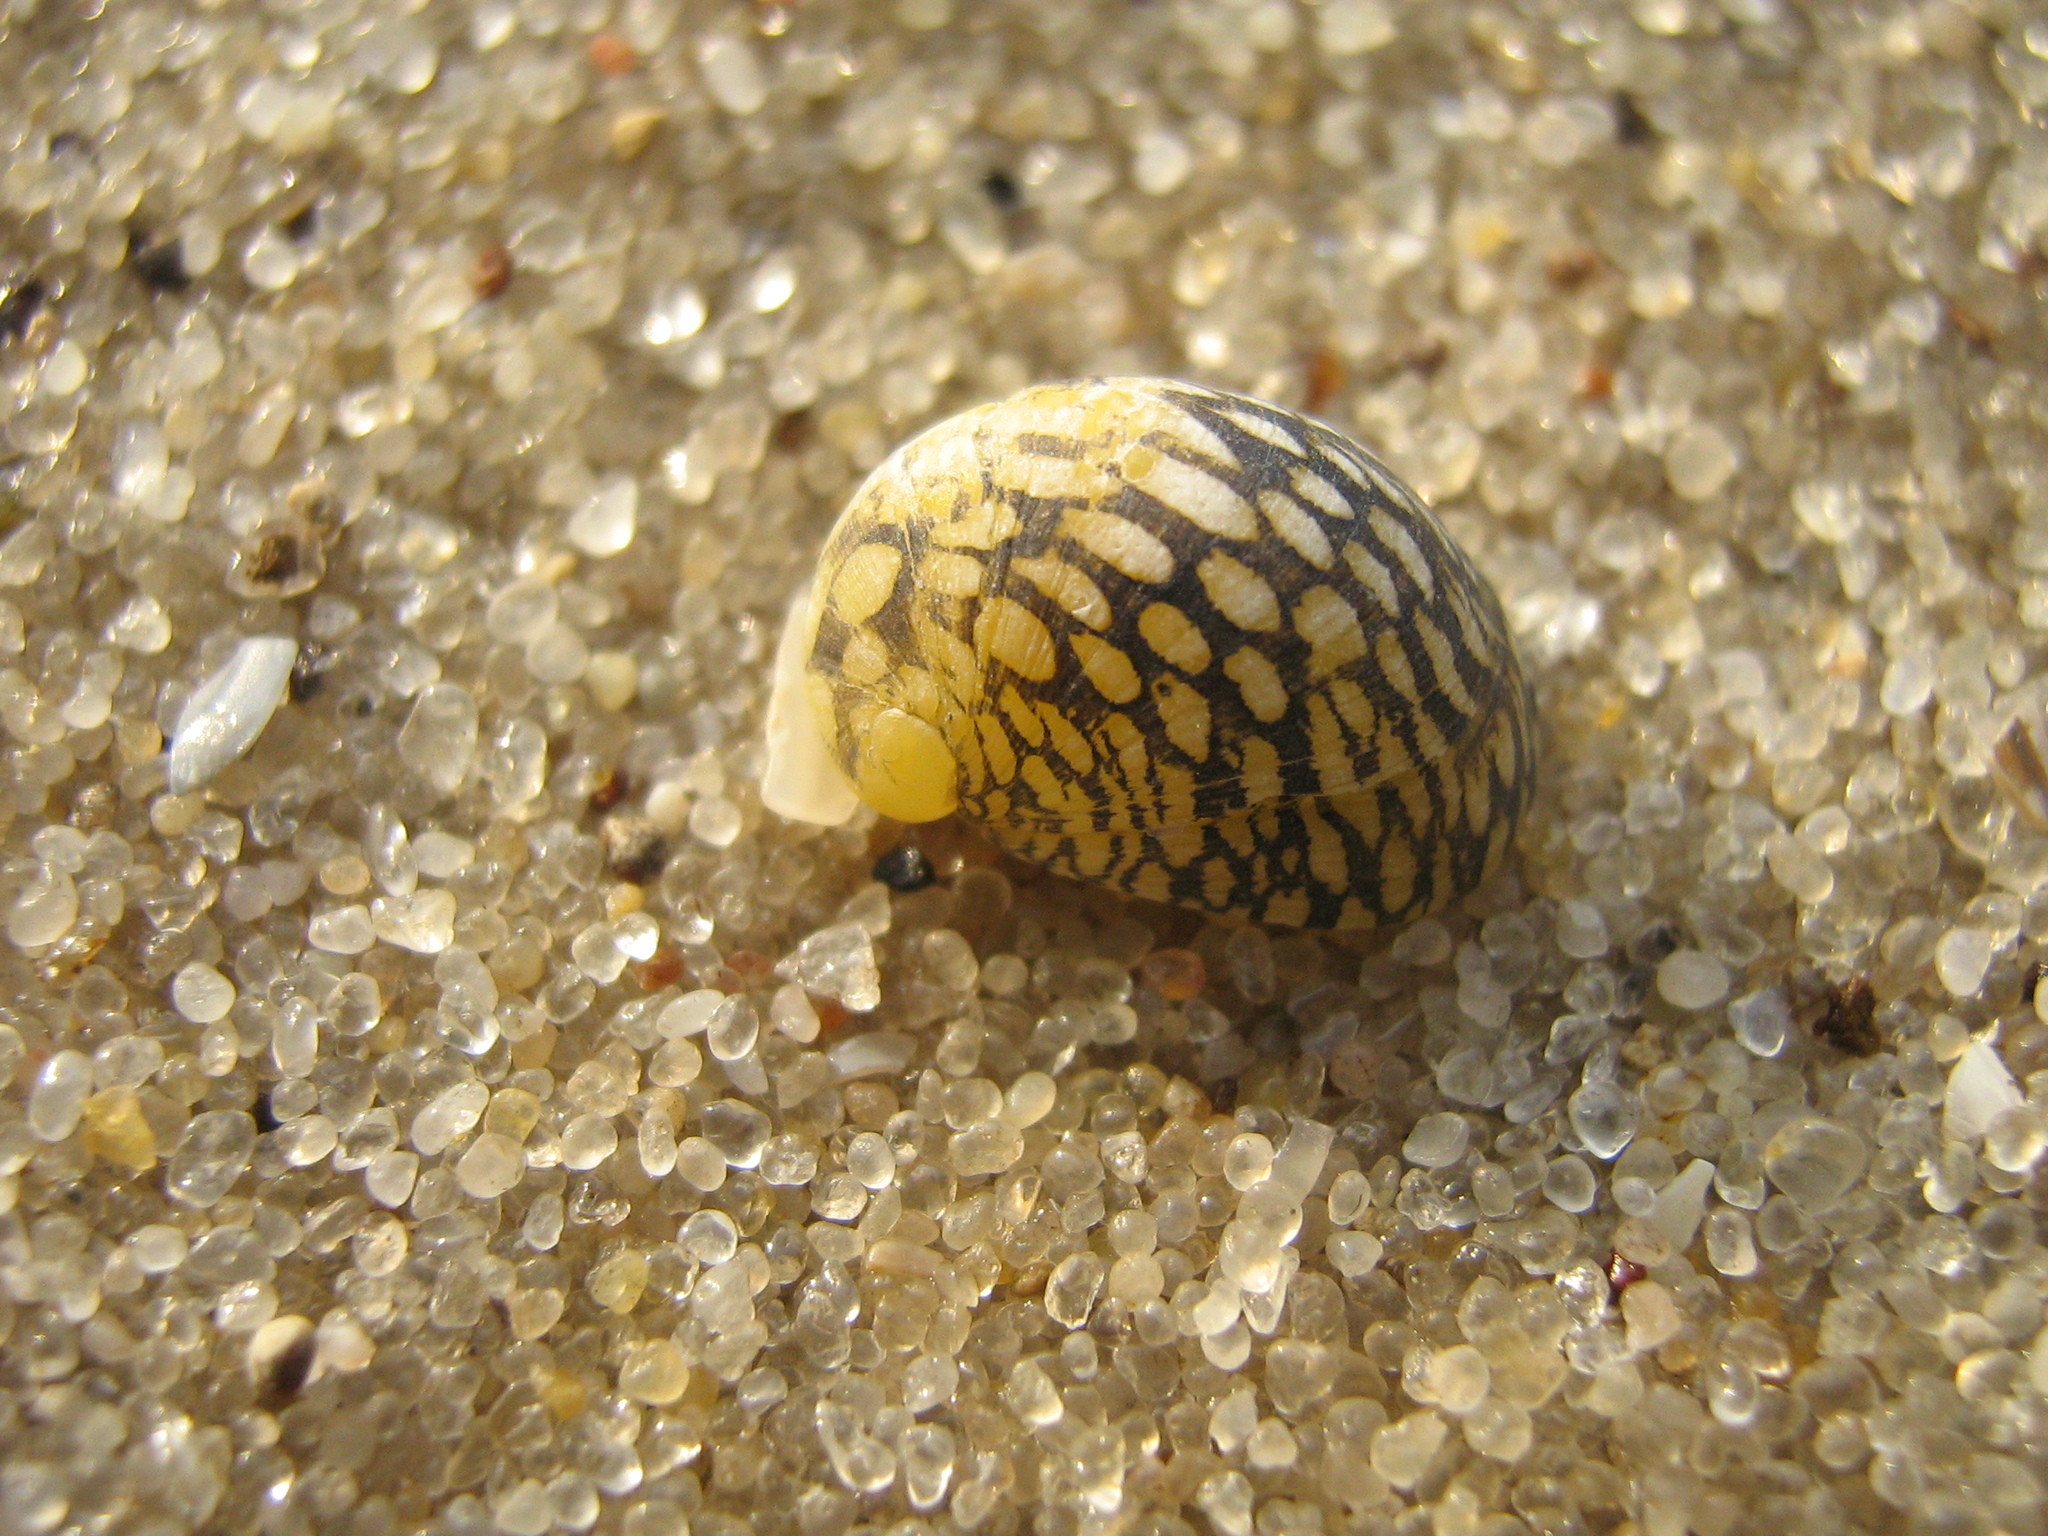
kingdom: Animalia
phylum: Mollusca
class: Gastropoda
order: Cycloneritida
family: Neritidae
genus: Theodoxus
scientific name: Theodoxus fluviatilis
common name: River nerite
